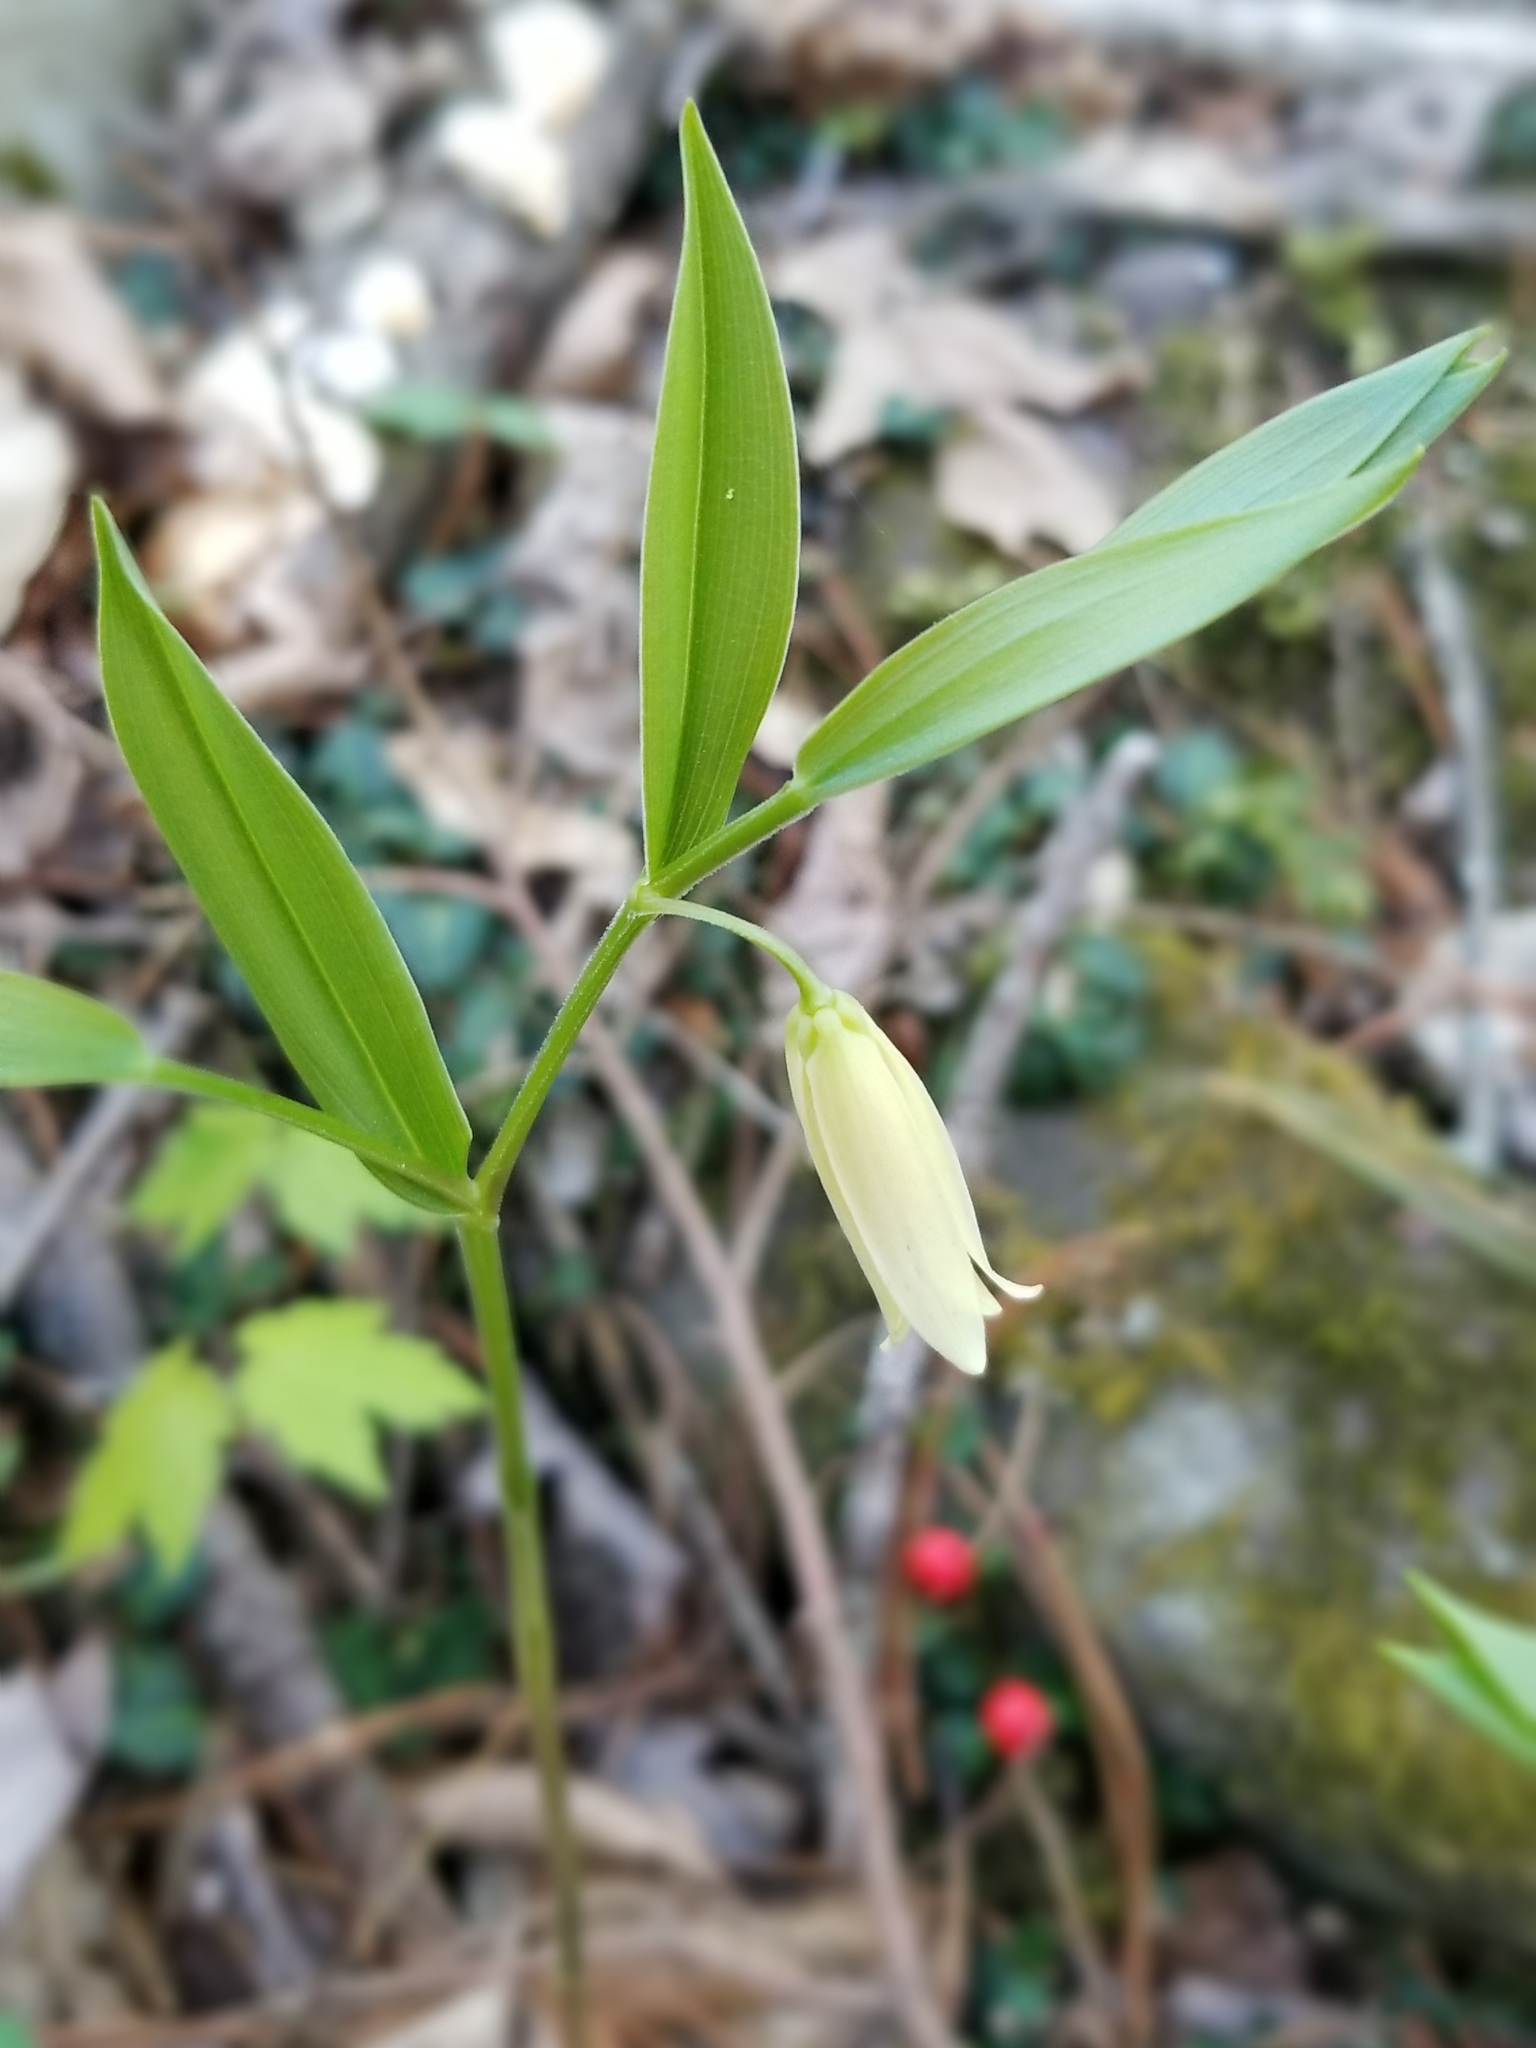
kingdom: Plantae
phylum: Tracheophyta
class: Liliopsida
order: Liliales
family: Colchicaceae
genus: Uvularia
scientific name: Uvularia puberula
